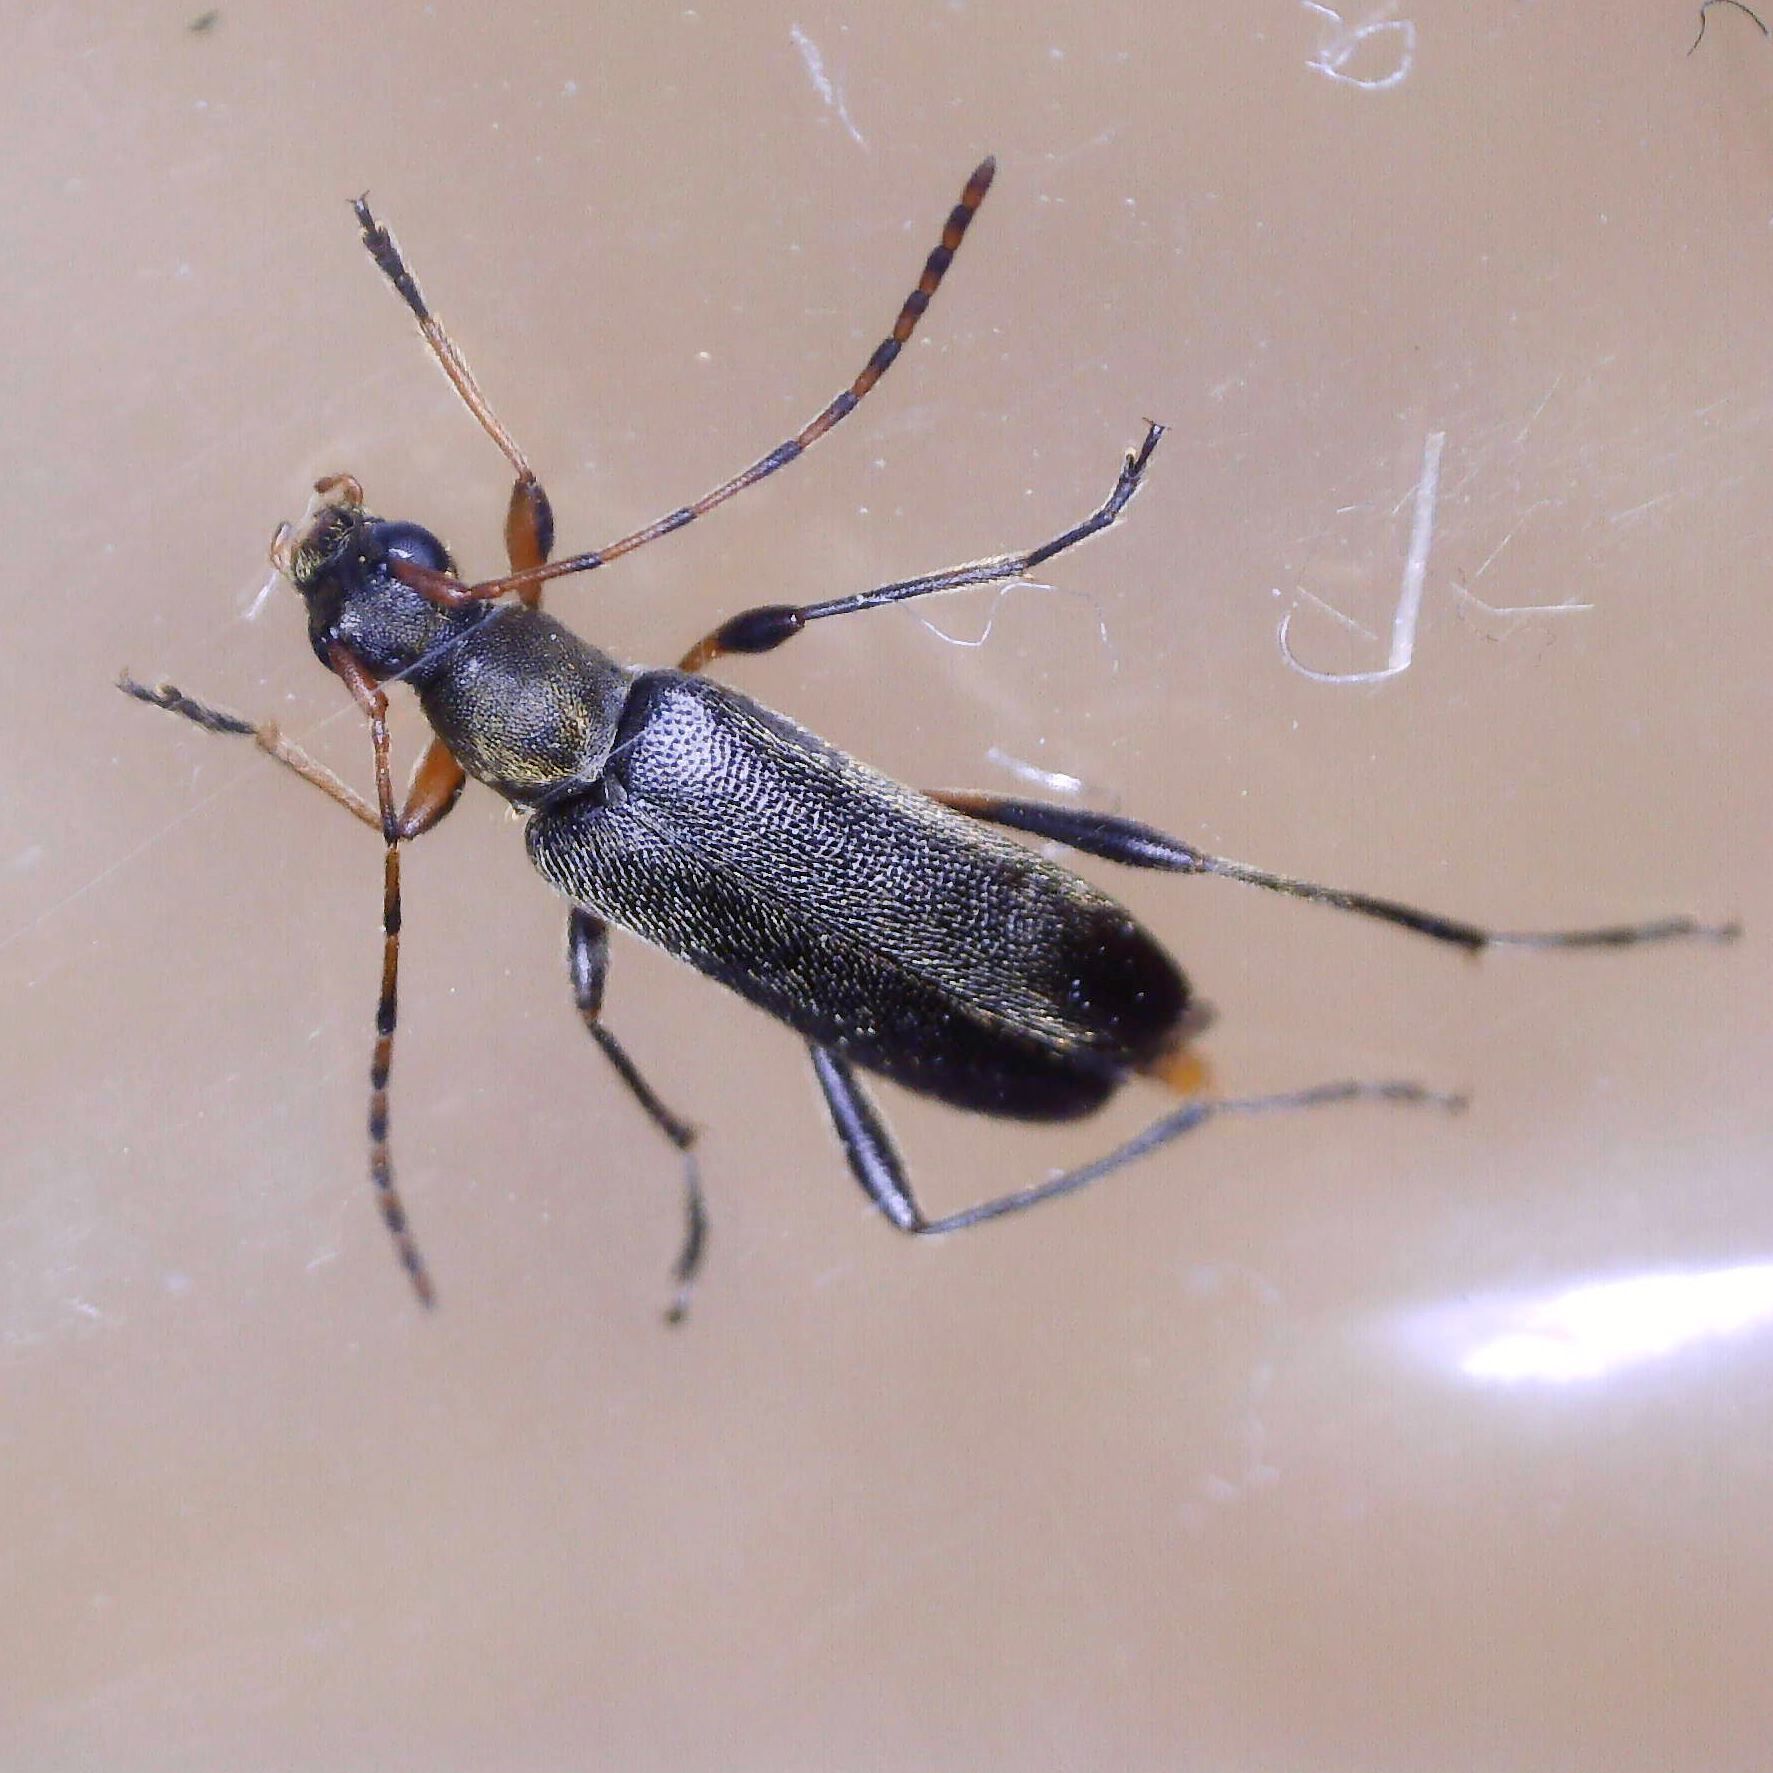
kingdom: Animalia
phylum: Arthropoda
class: Insecta
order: Coleoptera
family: Cerambycidae
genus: Grammoptera
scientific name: Grammoptera ruficornis
